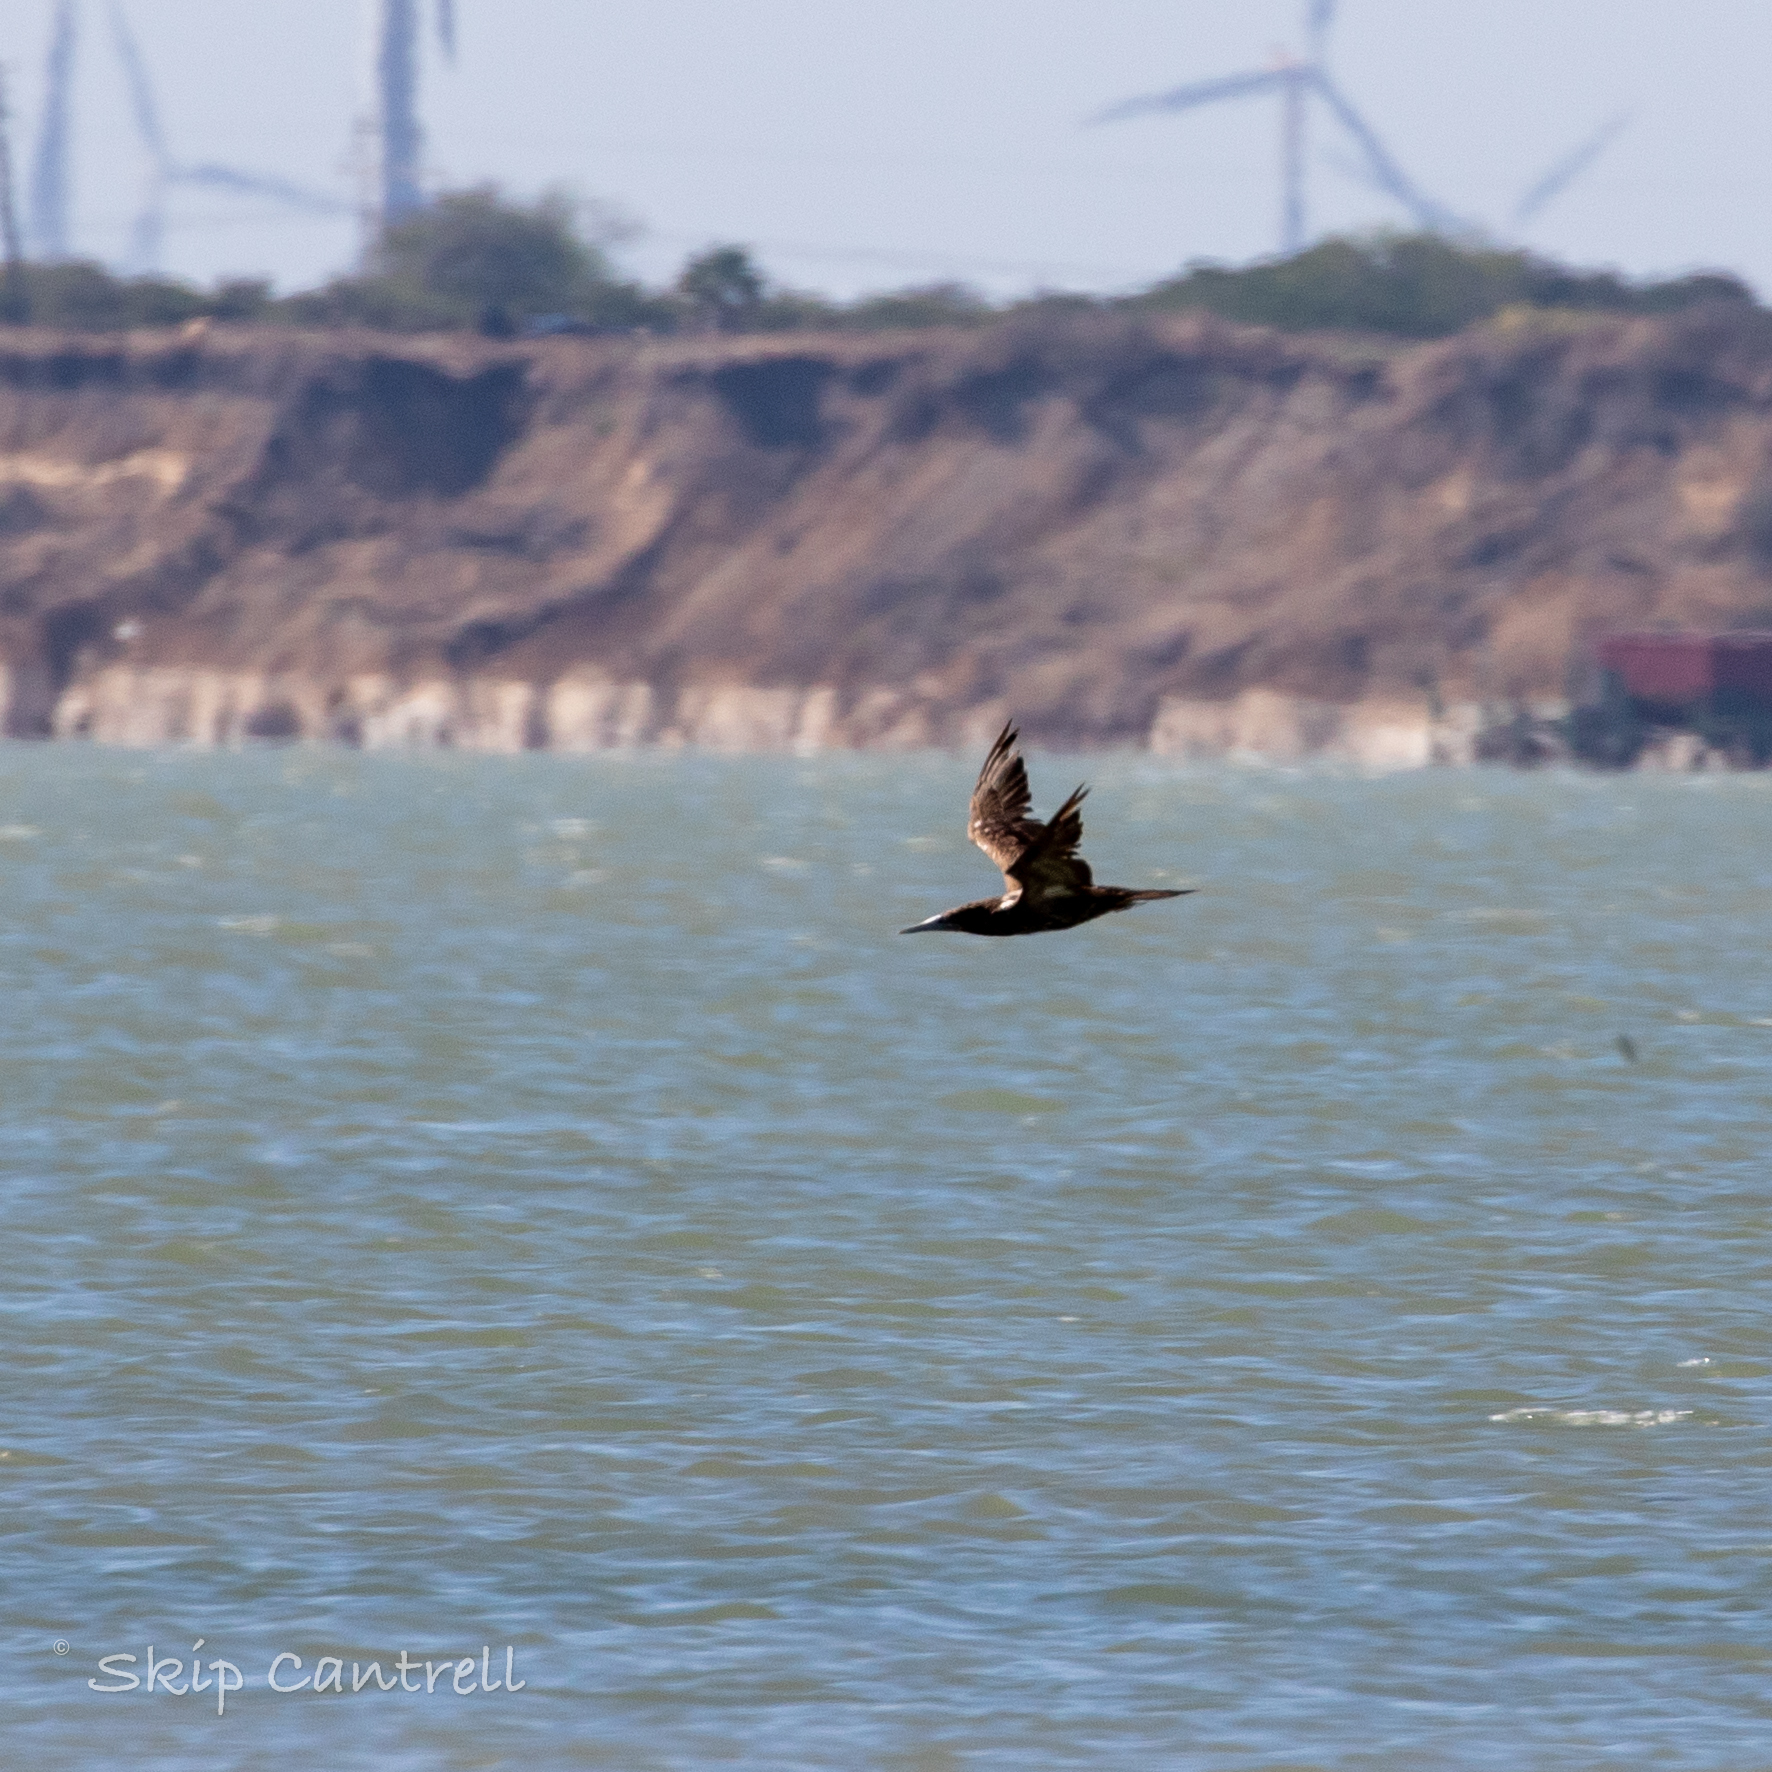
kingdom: Animalia
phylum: Chordata
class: Aves
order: Suliformes
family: Sulidae
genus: Sula
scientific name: Sula leucogaster
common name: Brown booby
